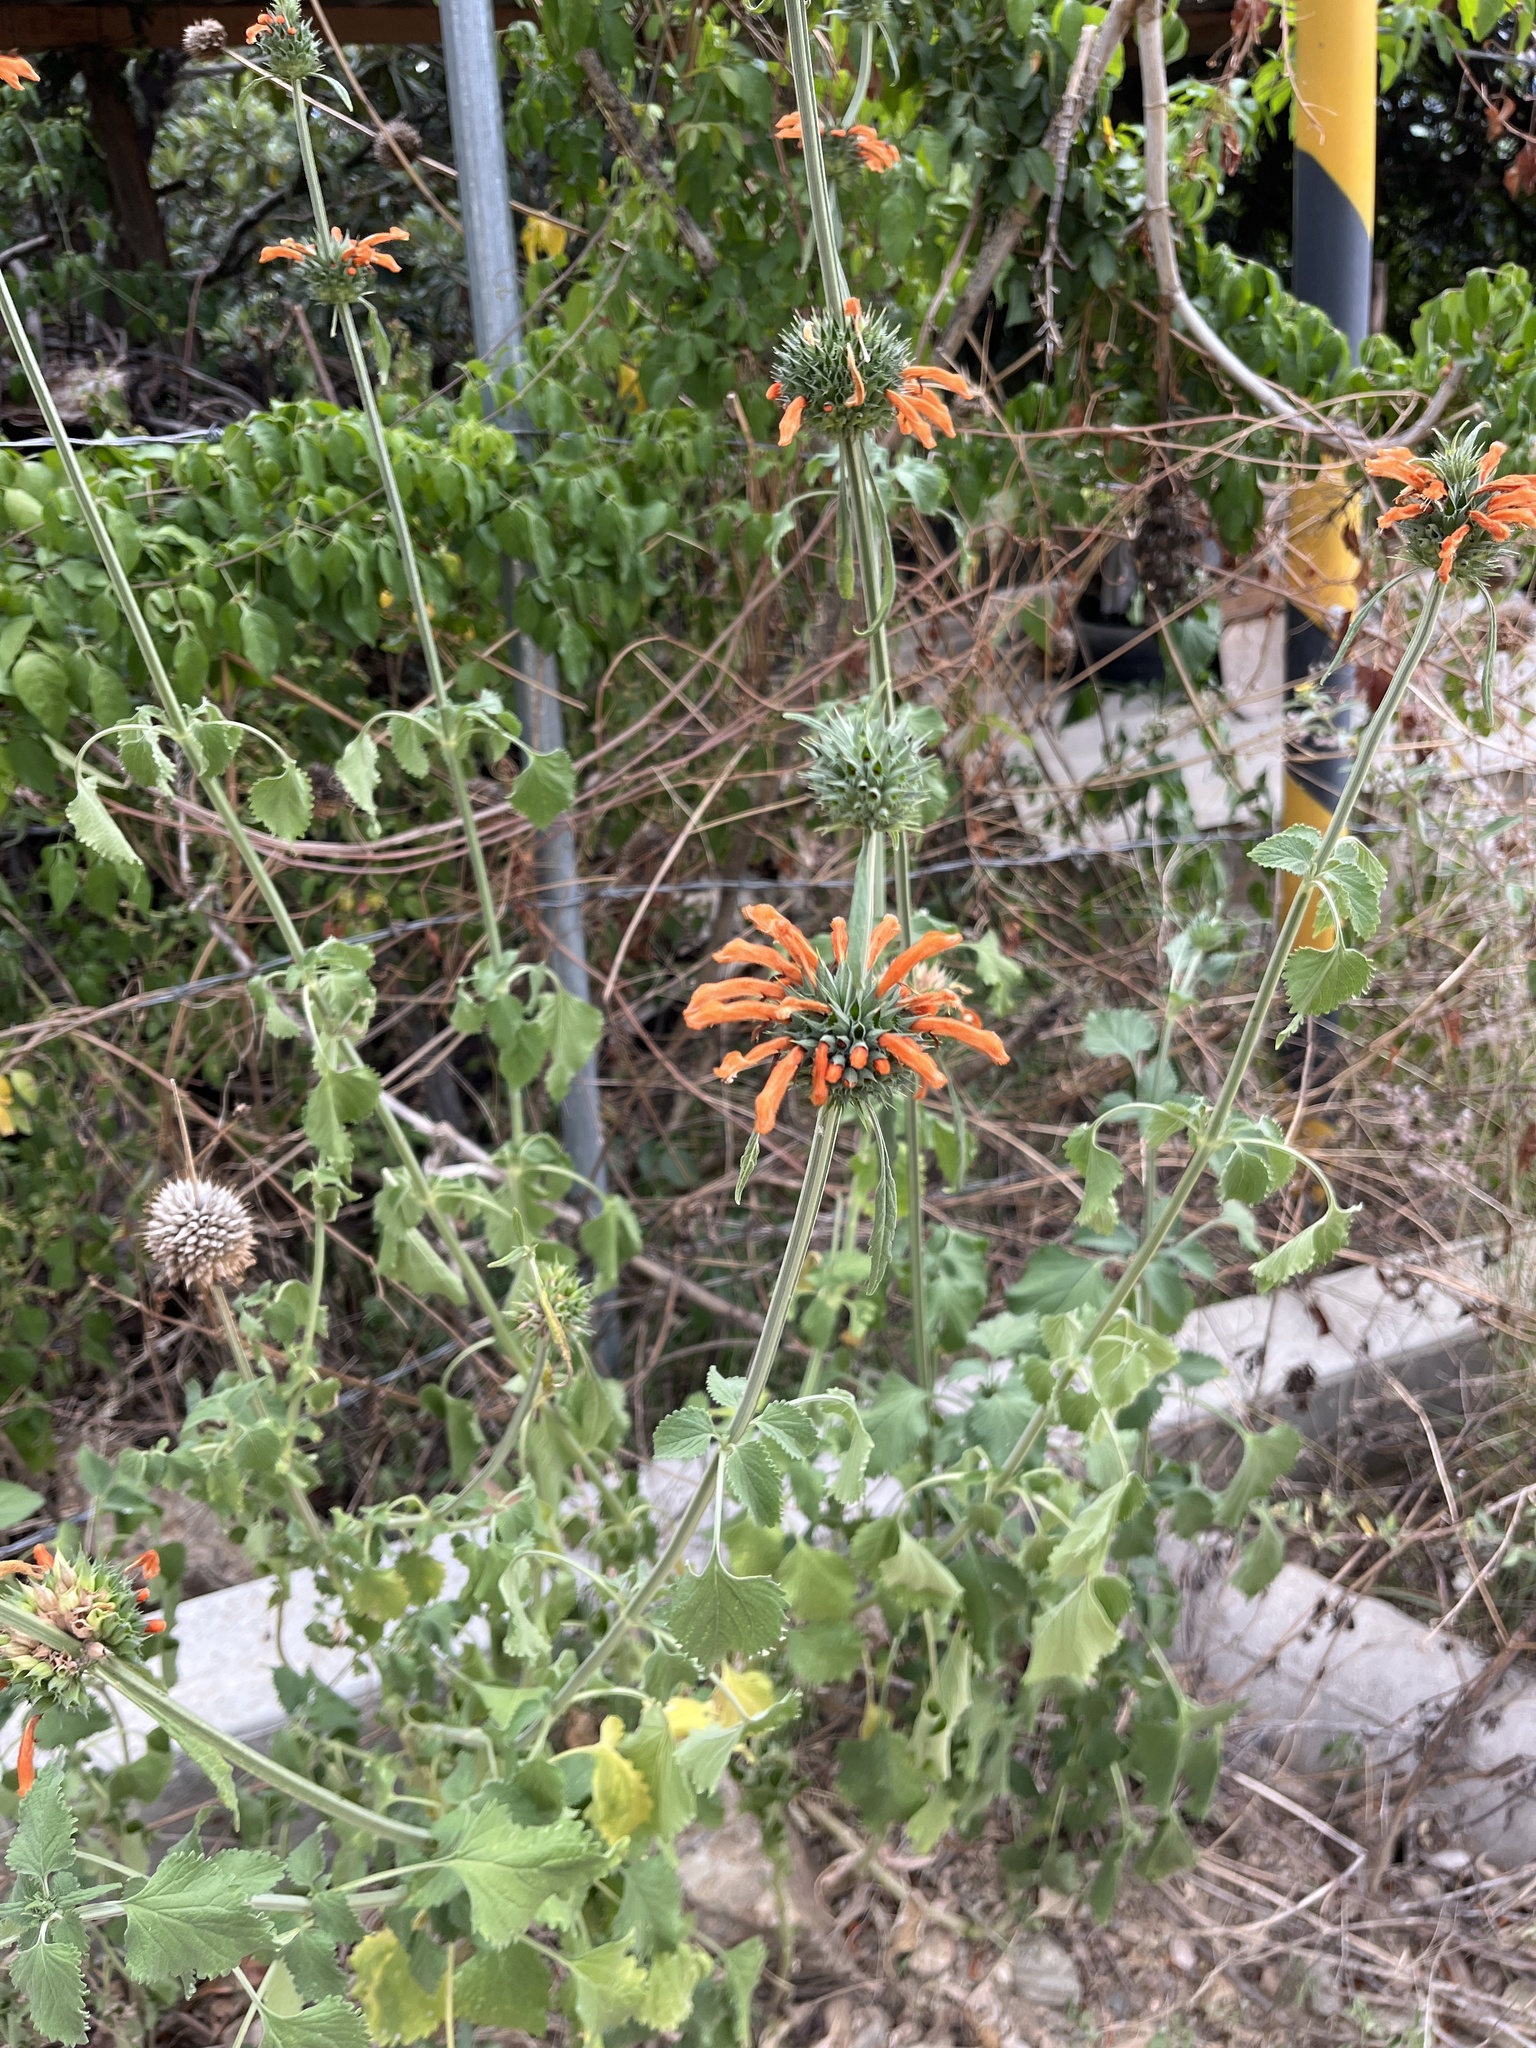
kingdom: Plantae
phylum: Tracheophyta
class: Magnoliopsida
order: Lamiales
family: Lamiaceae
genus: Leonotis
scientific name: Leonotis nepetifolia
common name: Christmas candlestick
